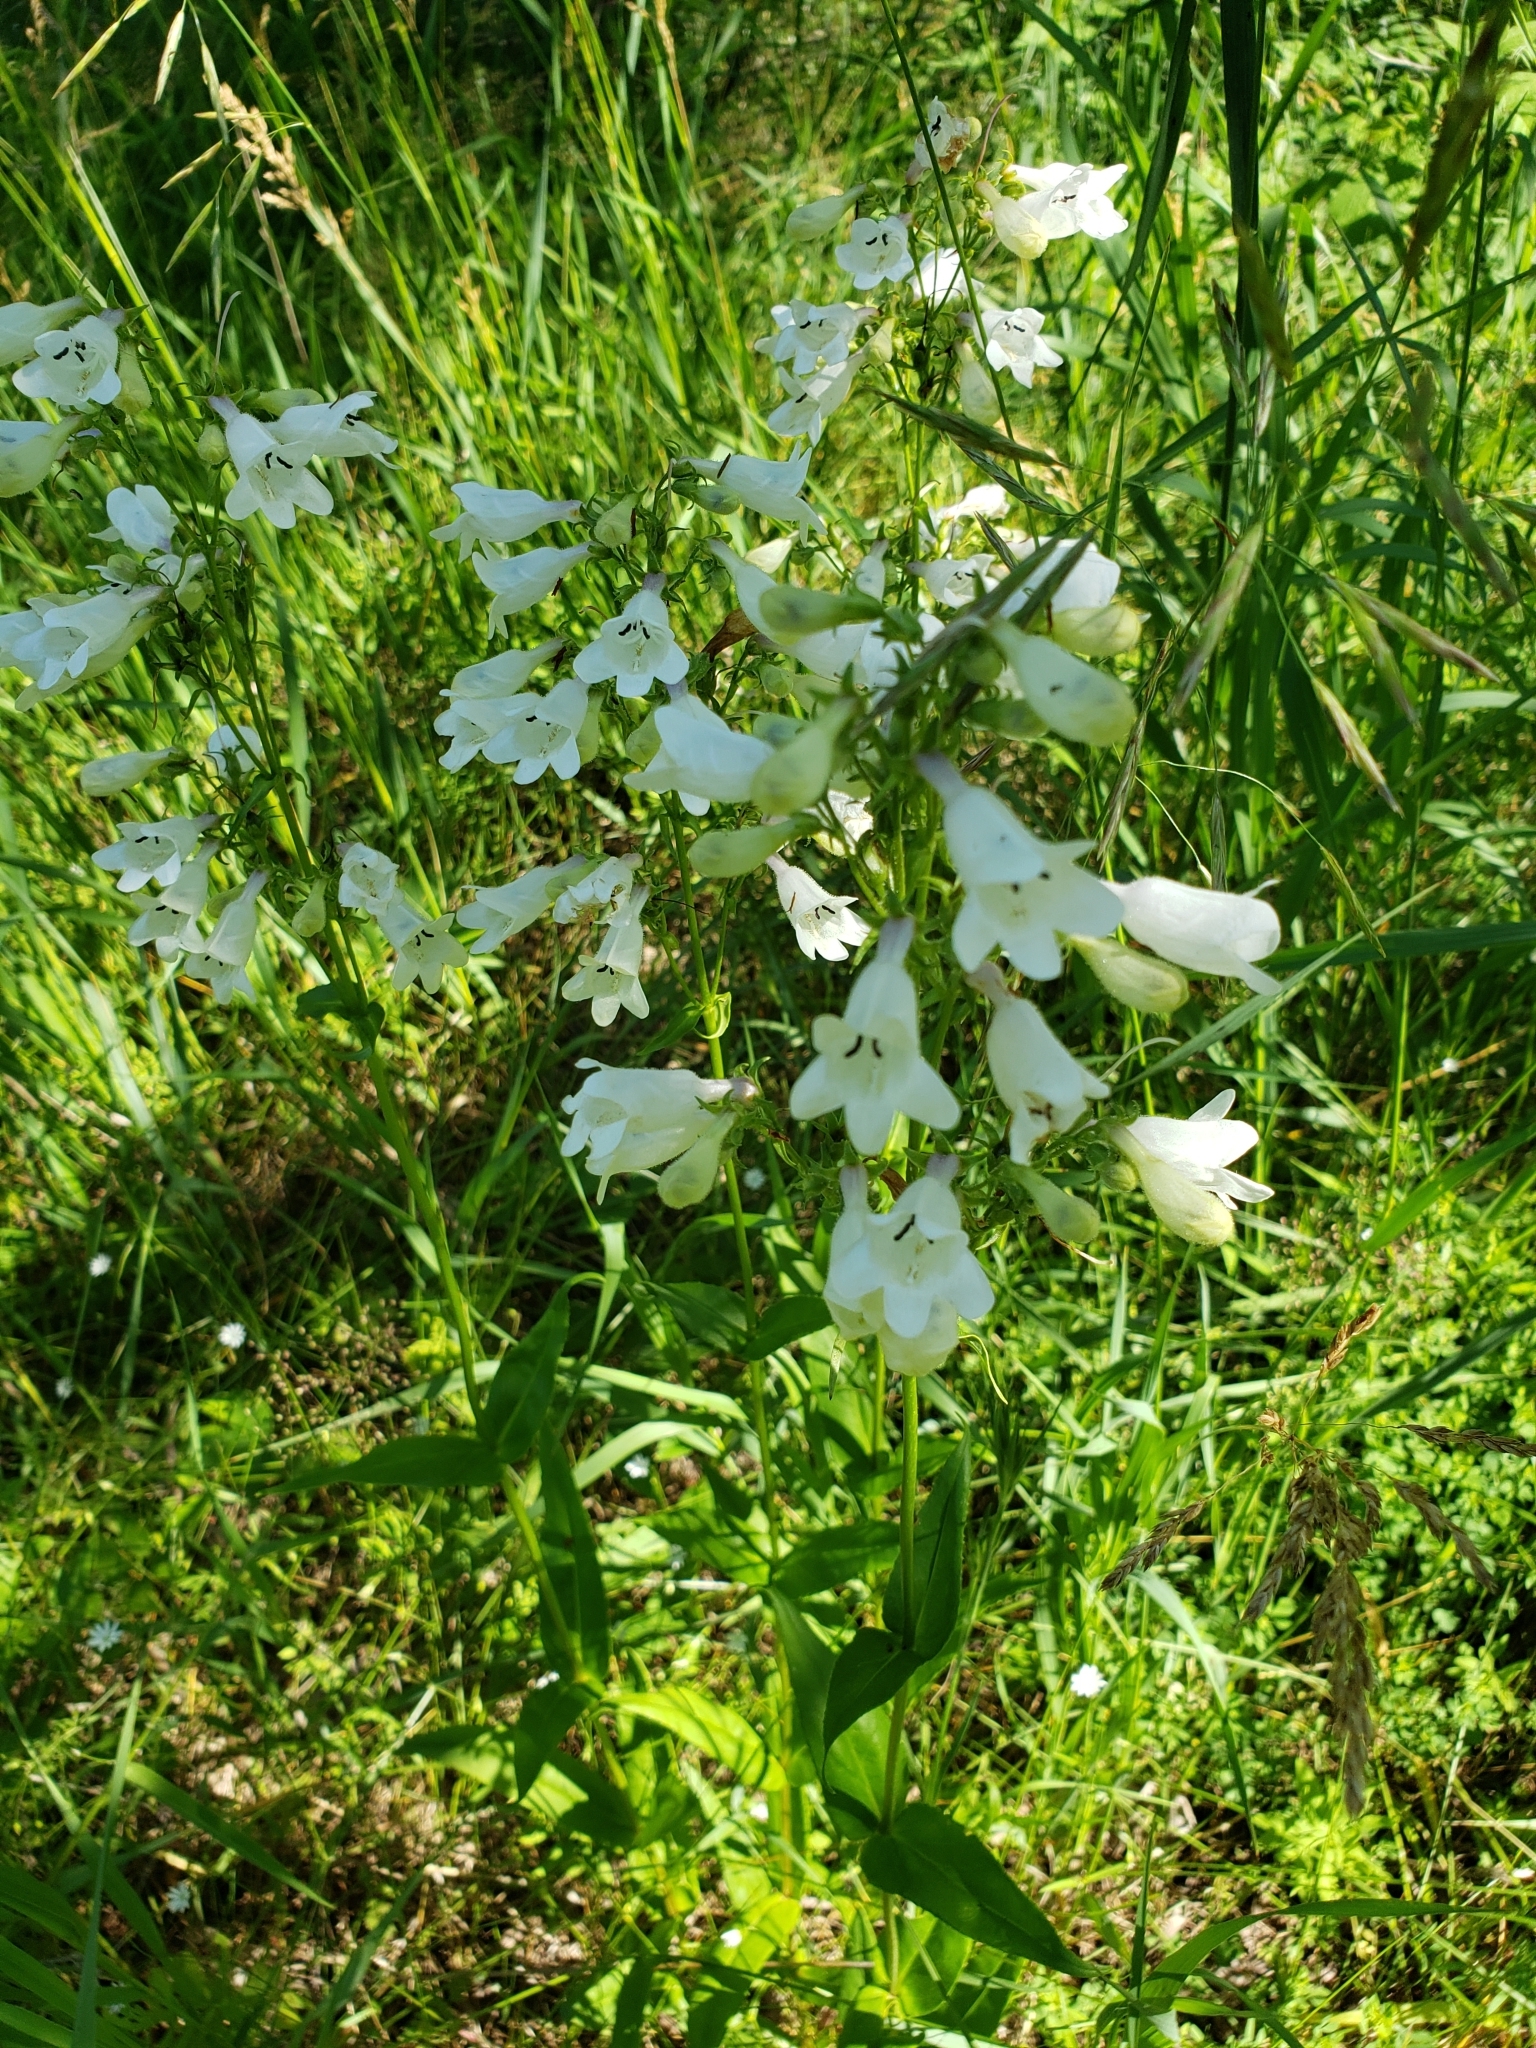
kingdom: Plantae
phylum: Tracheophyta
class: Magnoliopsida
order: Lamiales
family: Plantaginaceae
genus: Penstemon
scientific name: Penstemon digitalis
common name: Foxglove beardtongue
